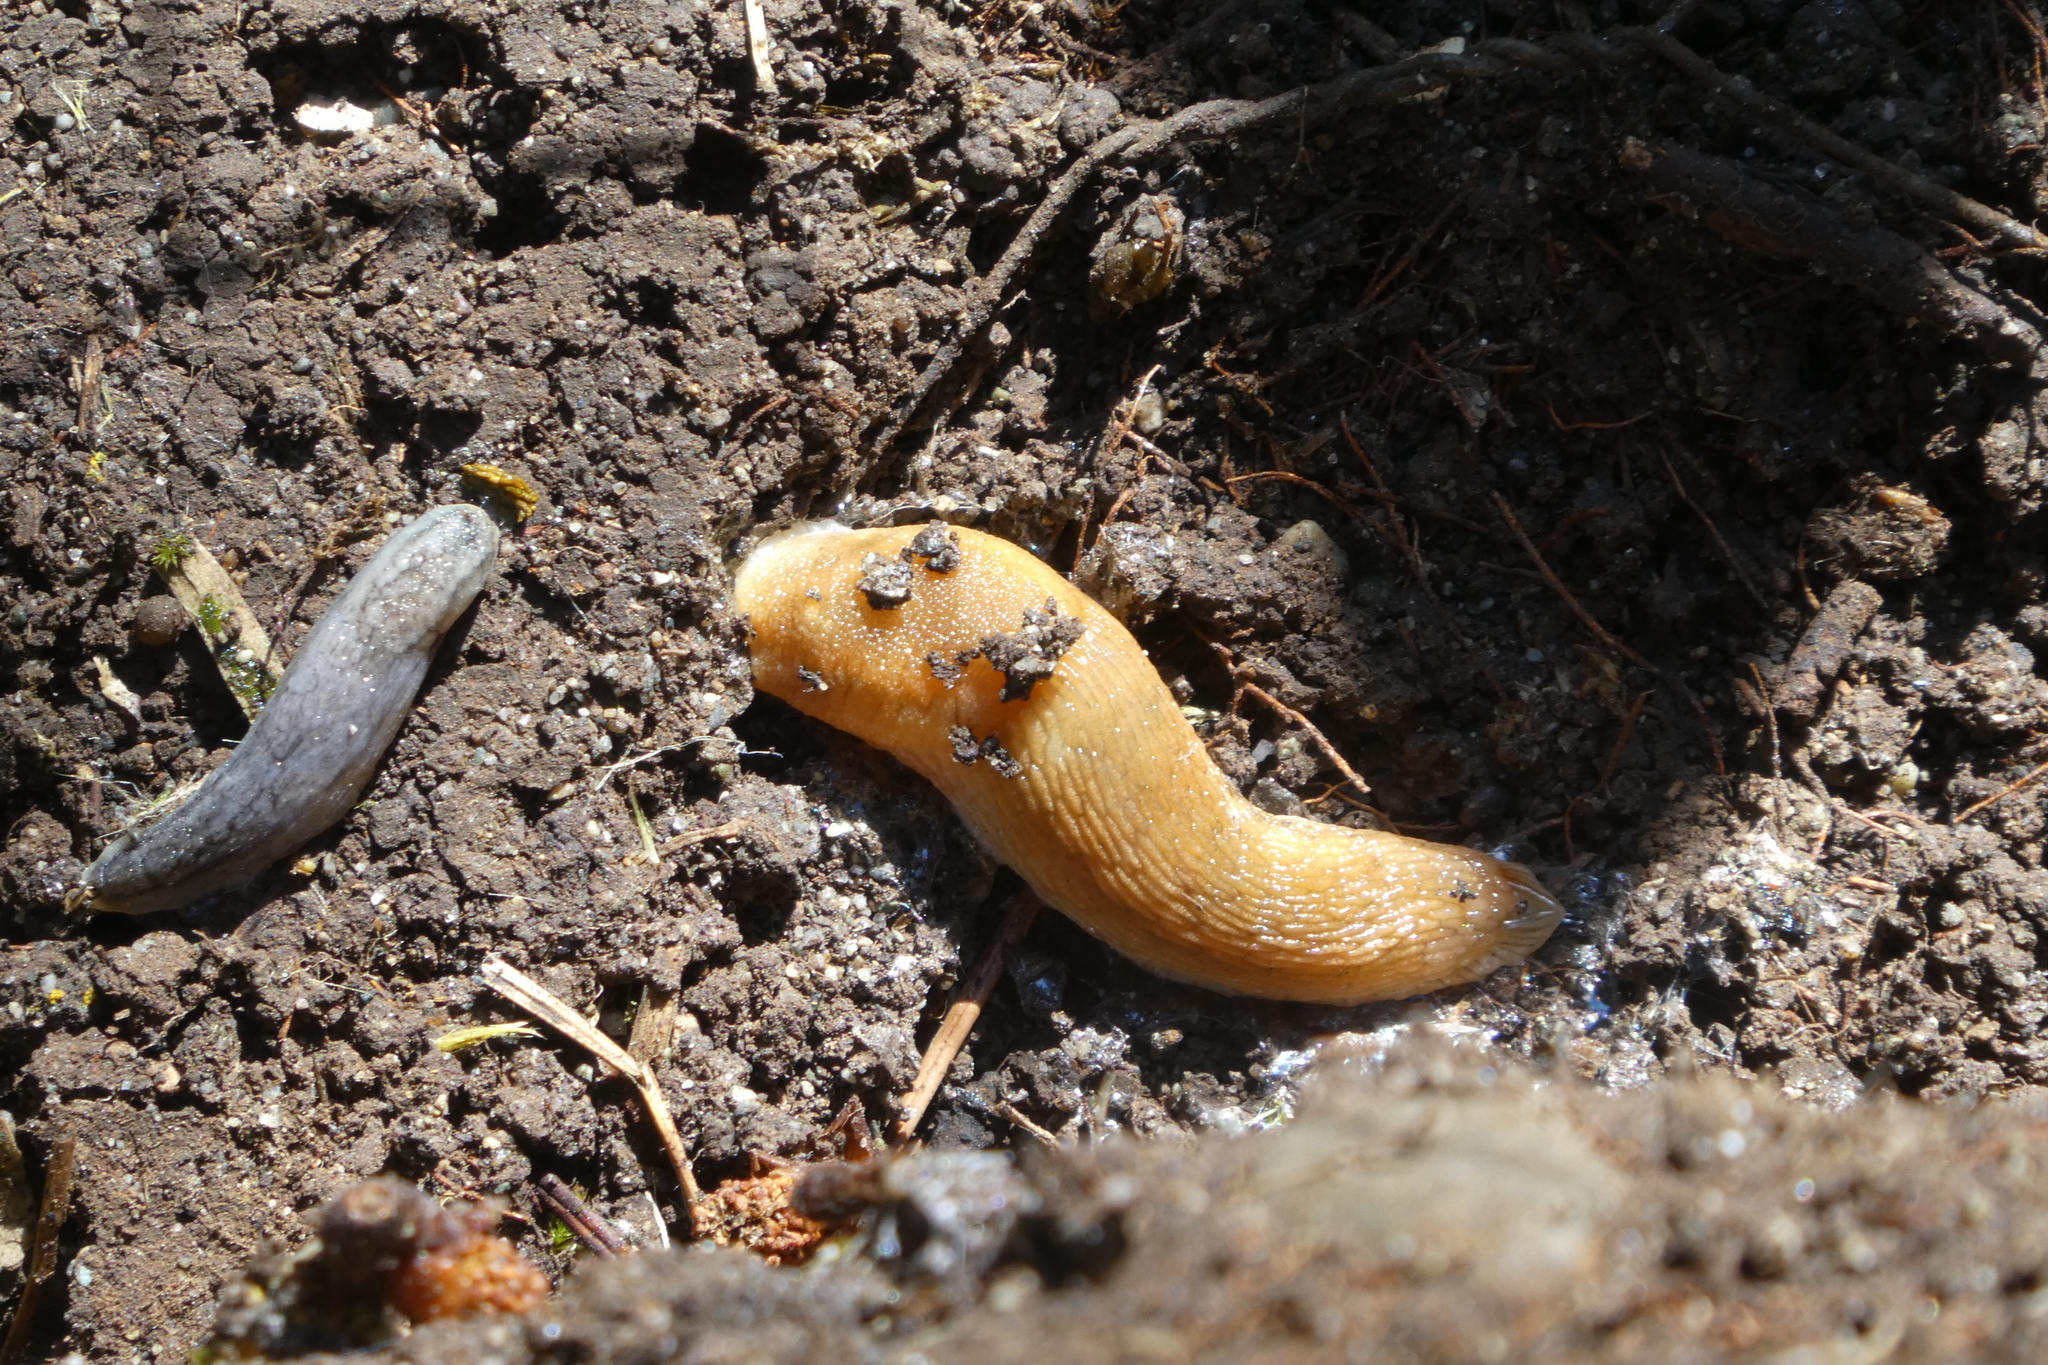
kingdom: Animalia
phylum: Mollusca
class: Gastropoda
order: Stylommatophora
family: Arionidae
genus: Arion
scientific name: Arion
